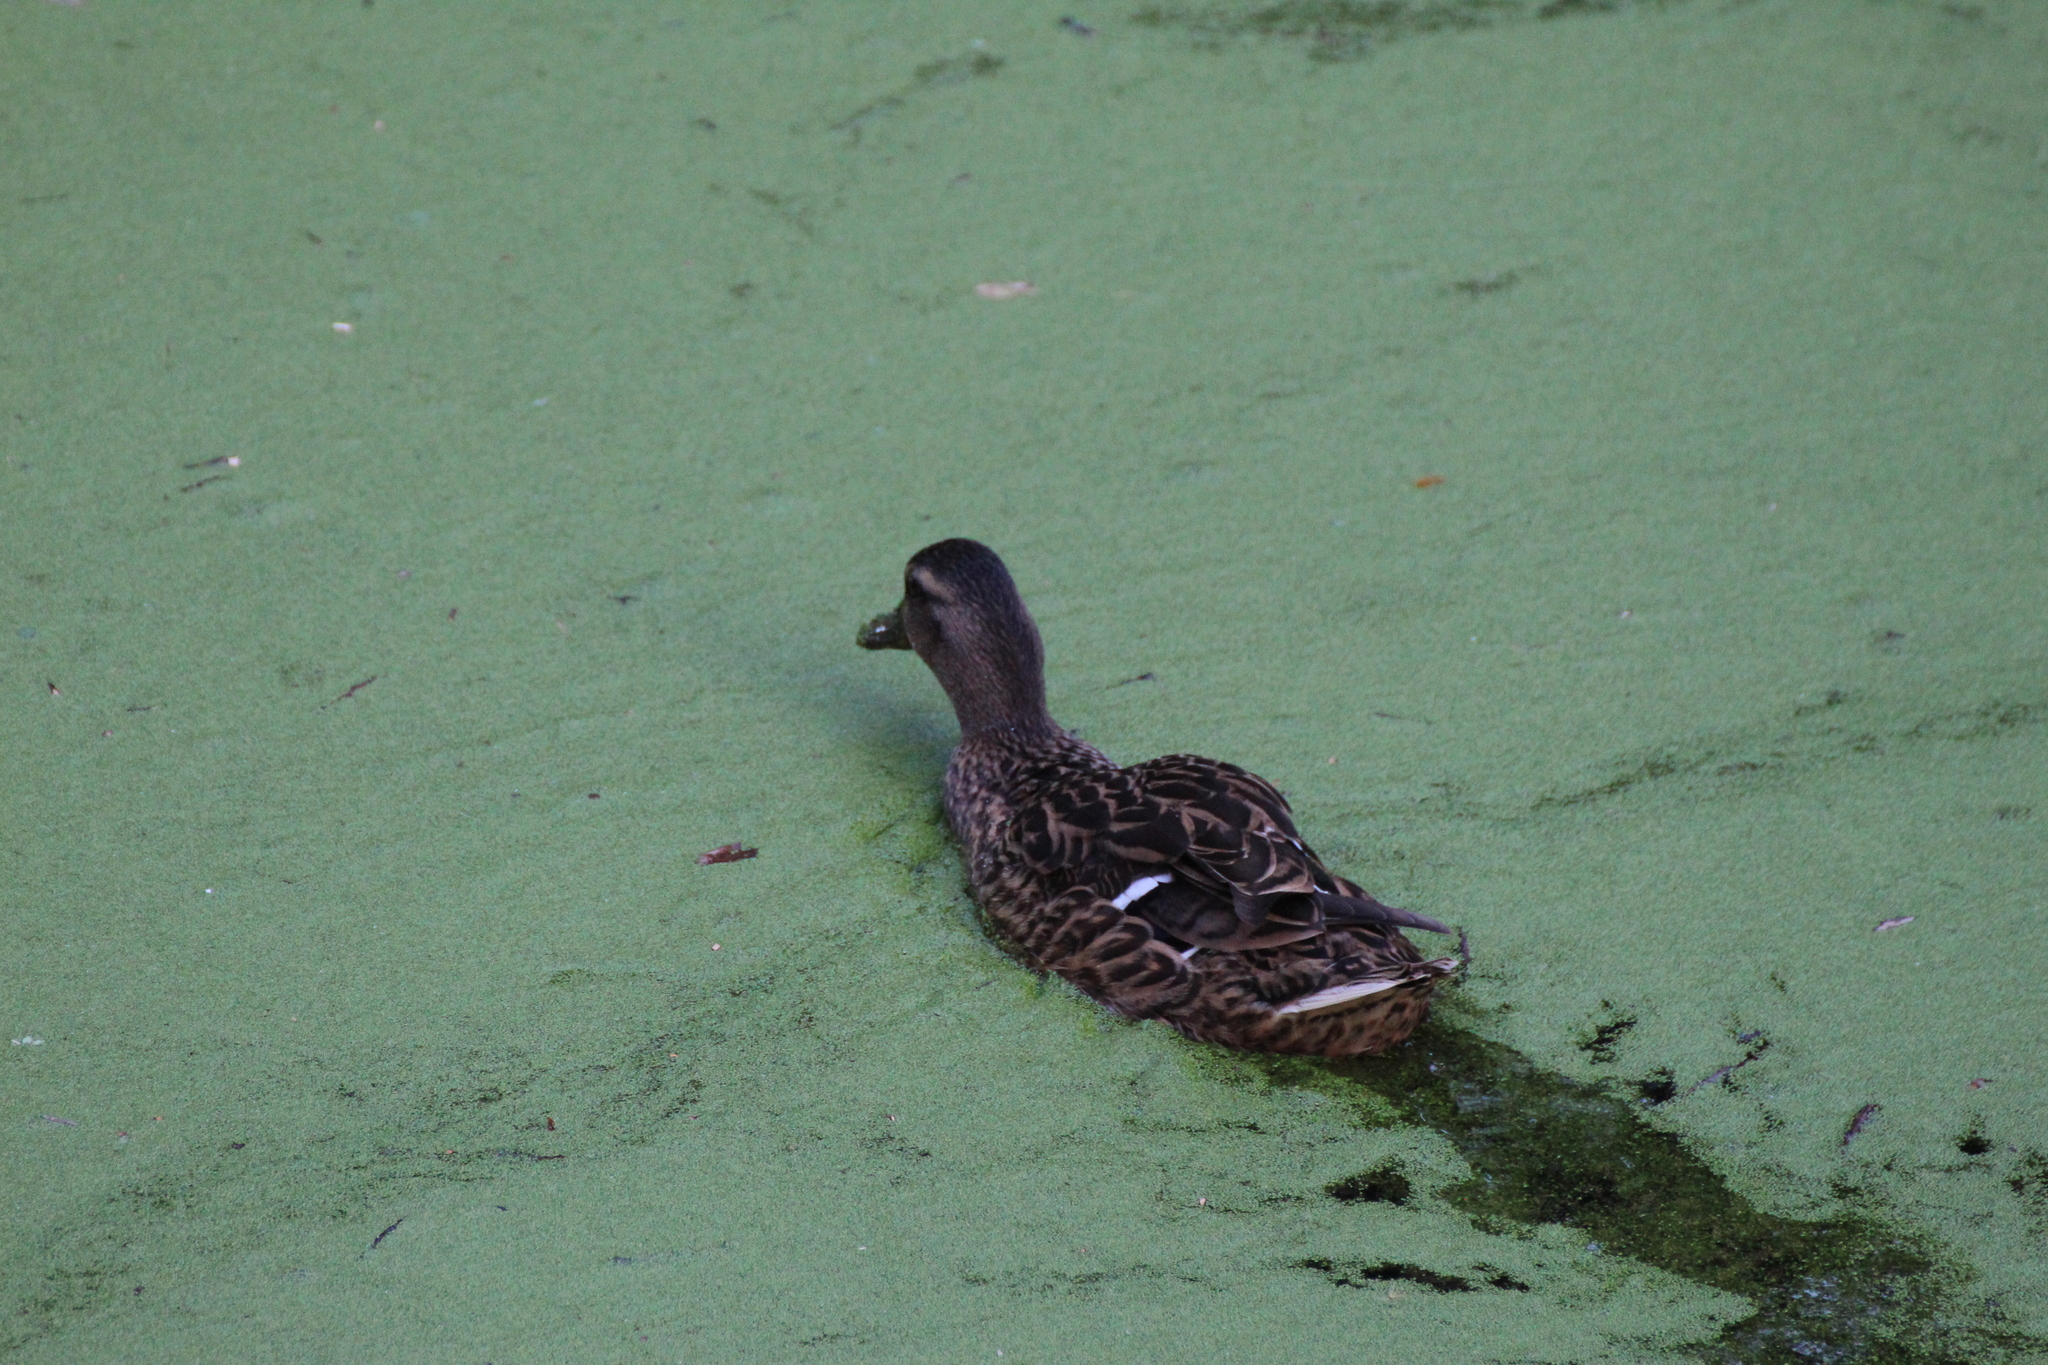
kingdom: Animalia
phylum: Chordata
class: Aves
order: Anseriformes
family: Anatidae
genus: Anas
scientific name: Anas platyrhynchos
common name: Mallard
